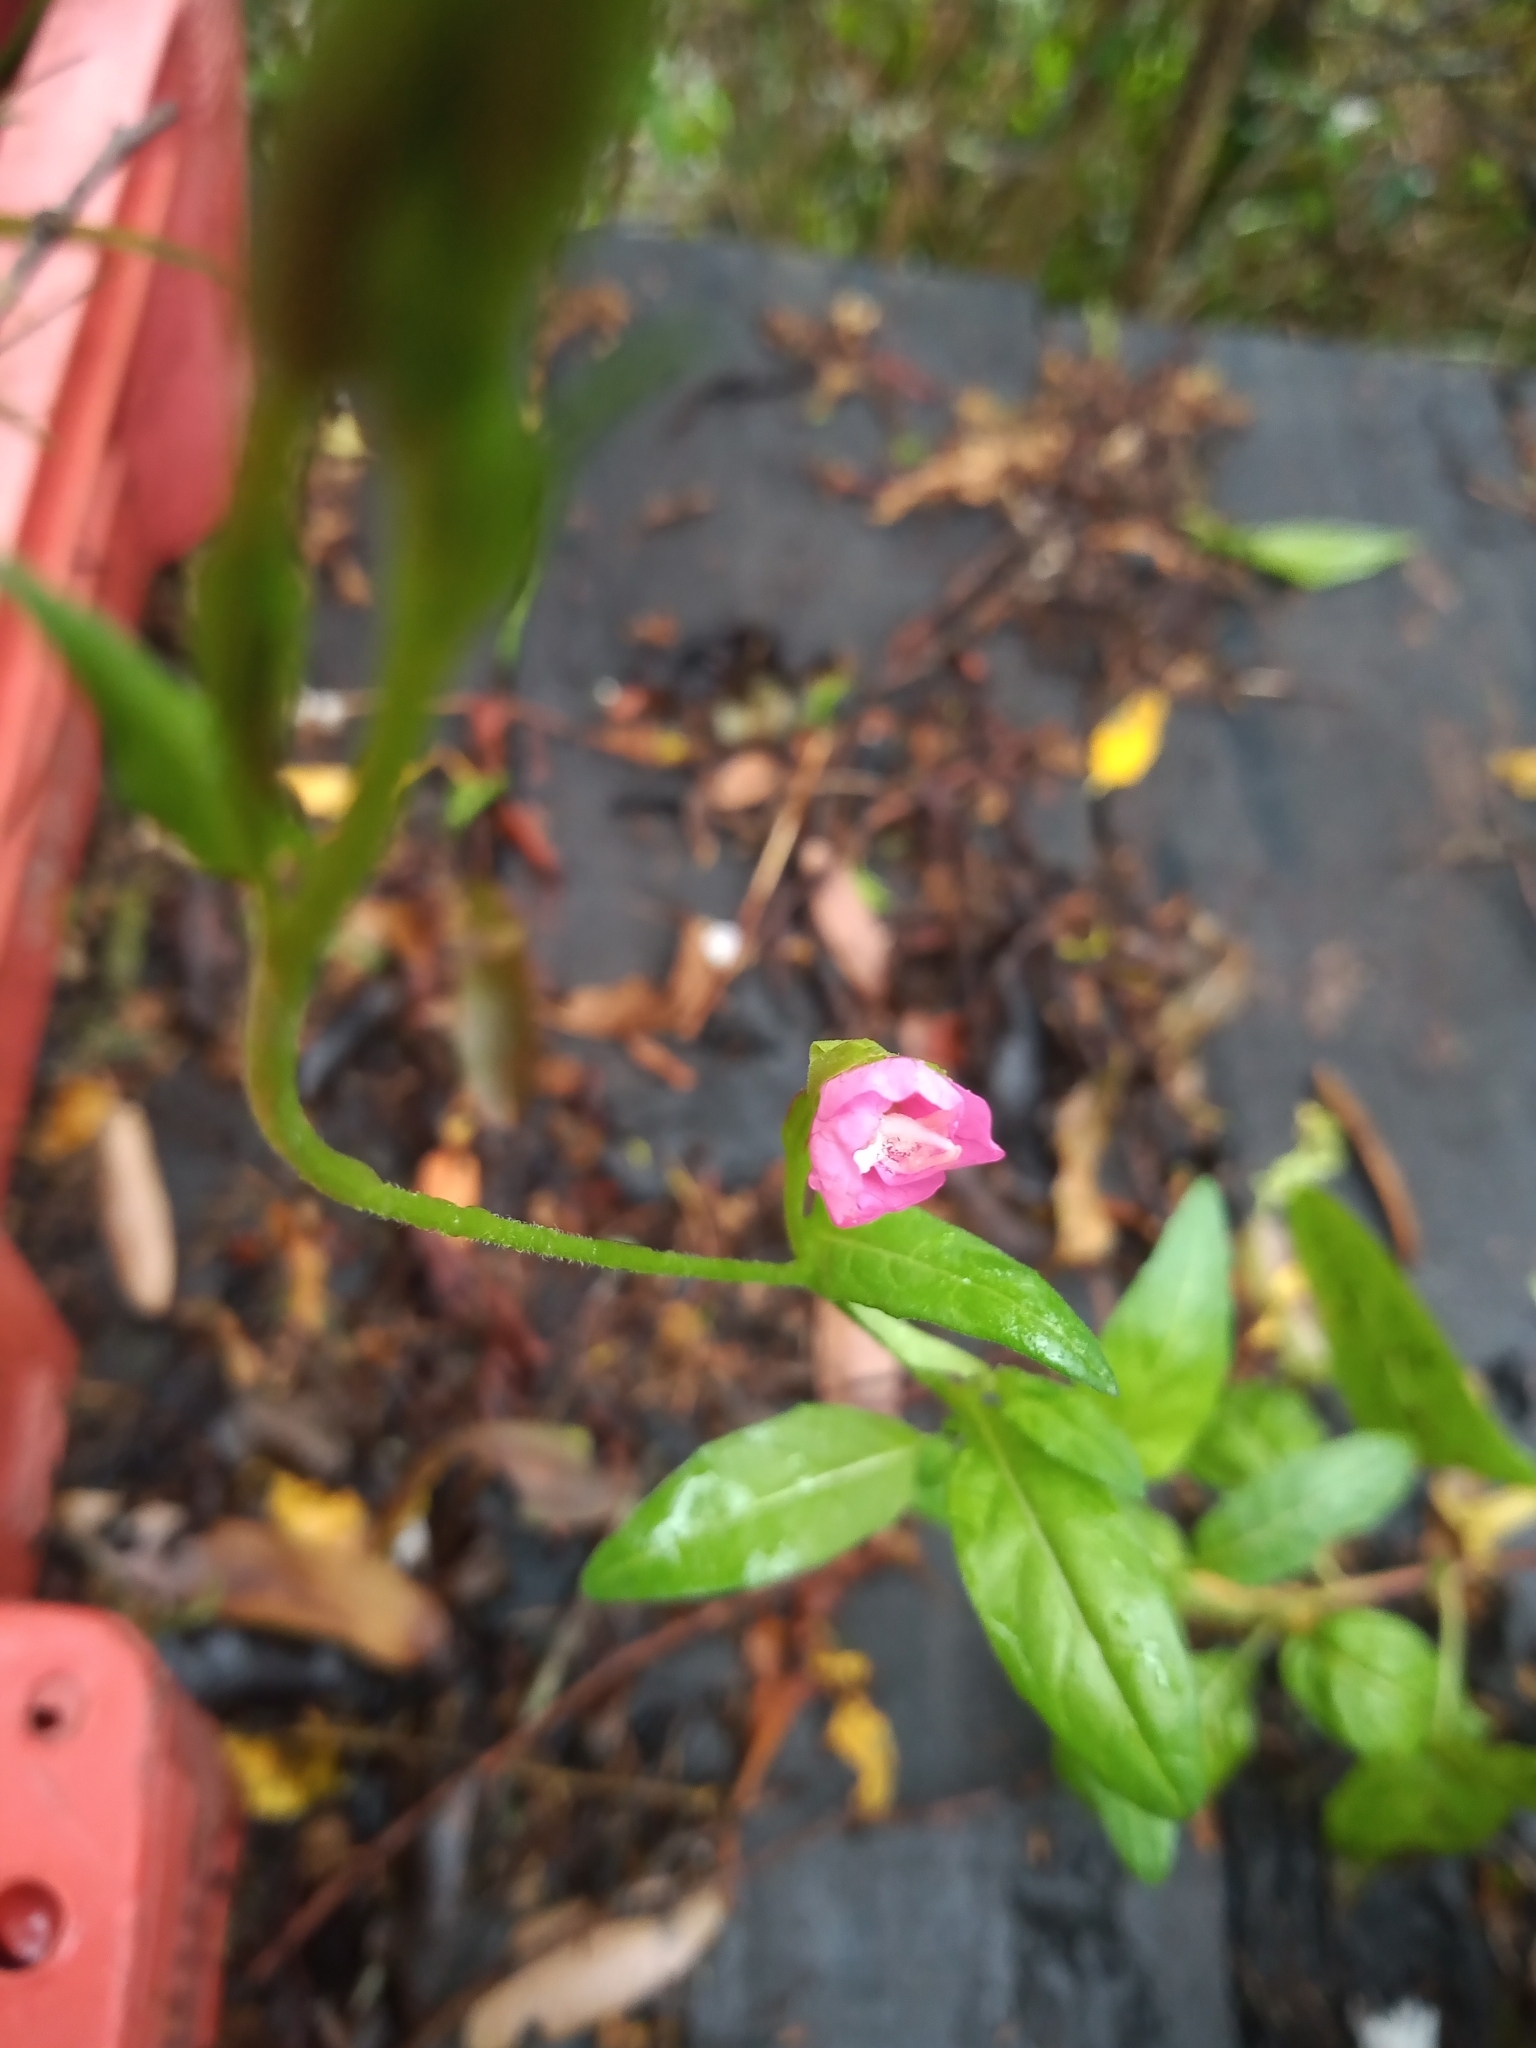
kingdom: Plantae
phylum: Tracheophyta
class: Magnoliopsida
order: Myrtales
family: Onagraceae
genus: Oenothera
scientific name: Oenothera rosea
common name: Rosy evening-primrose
